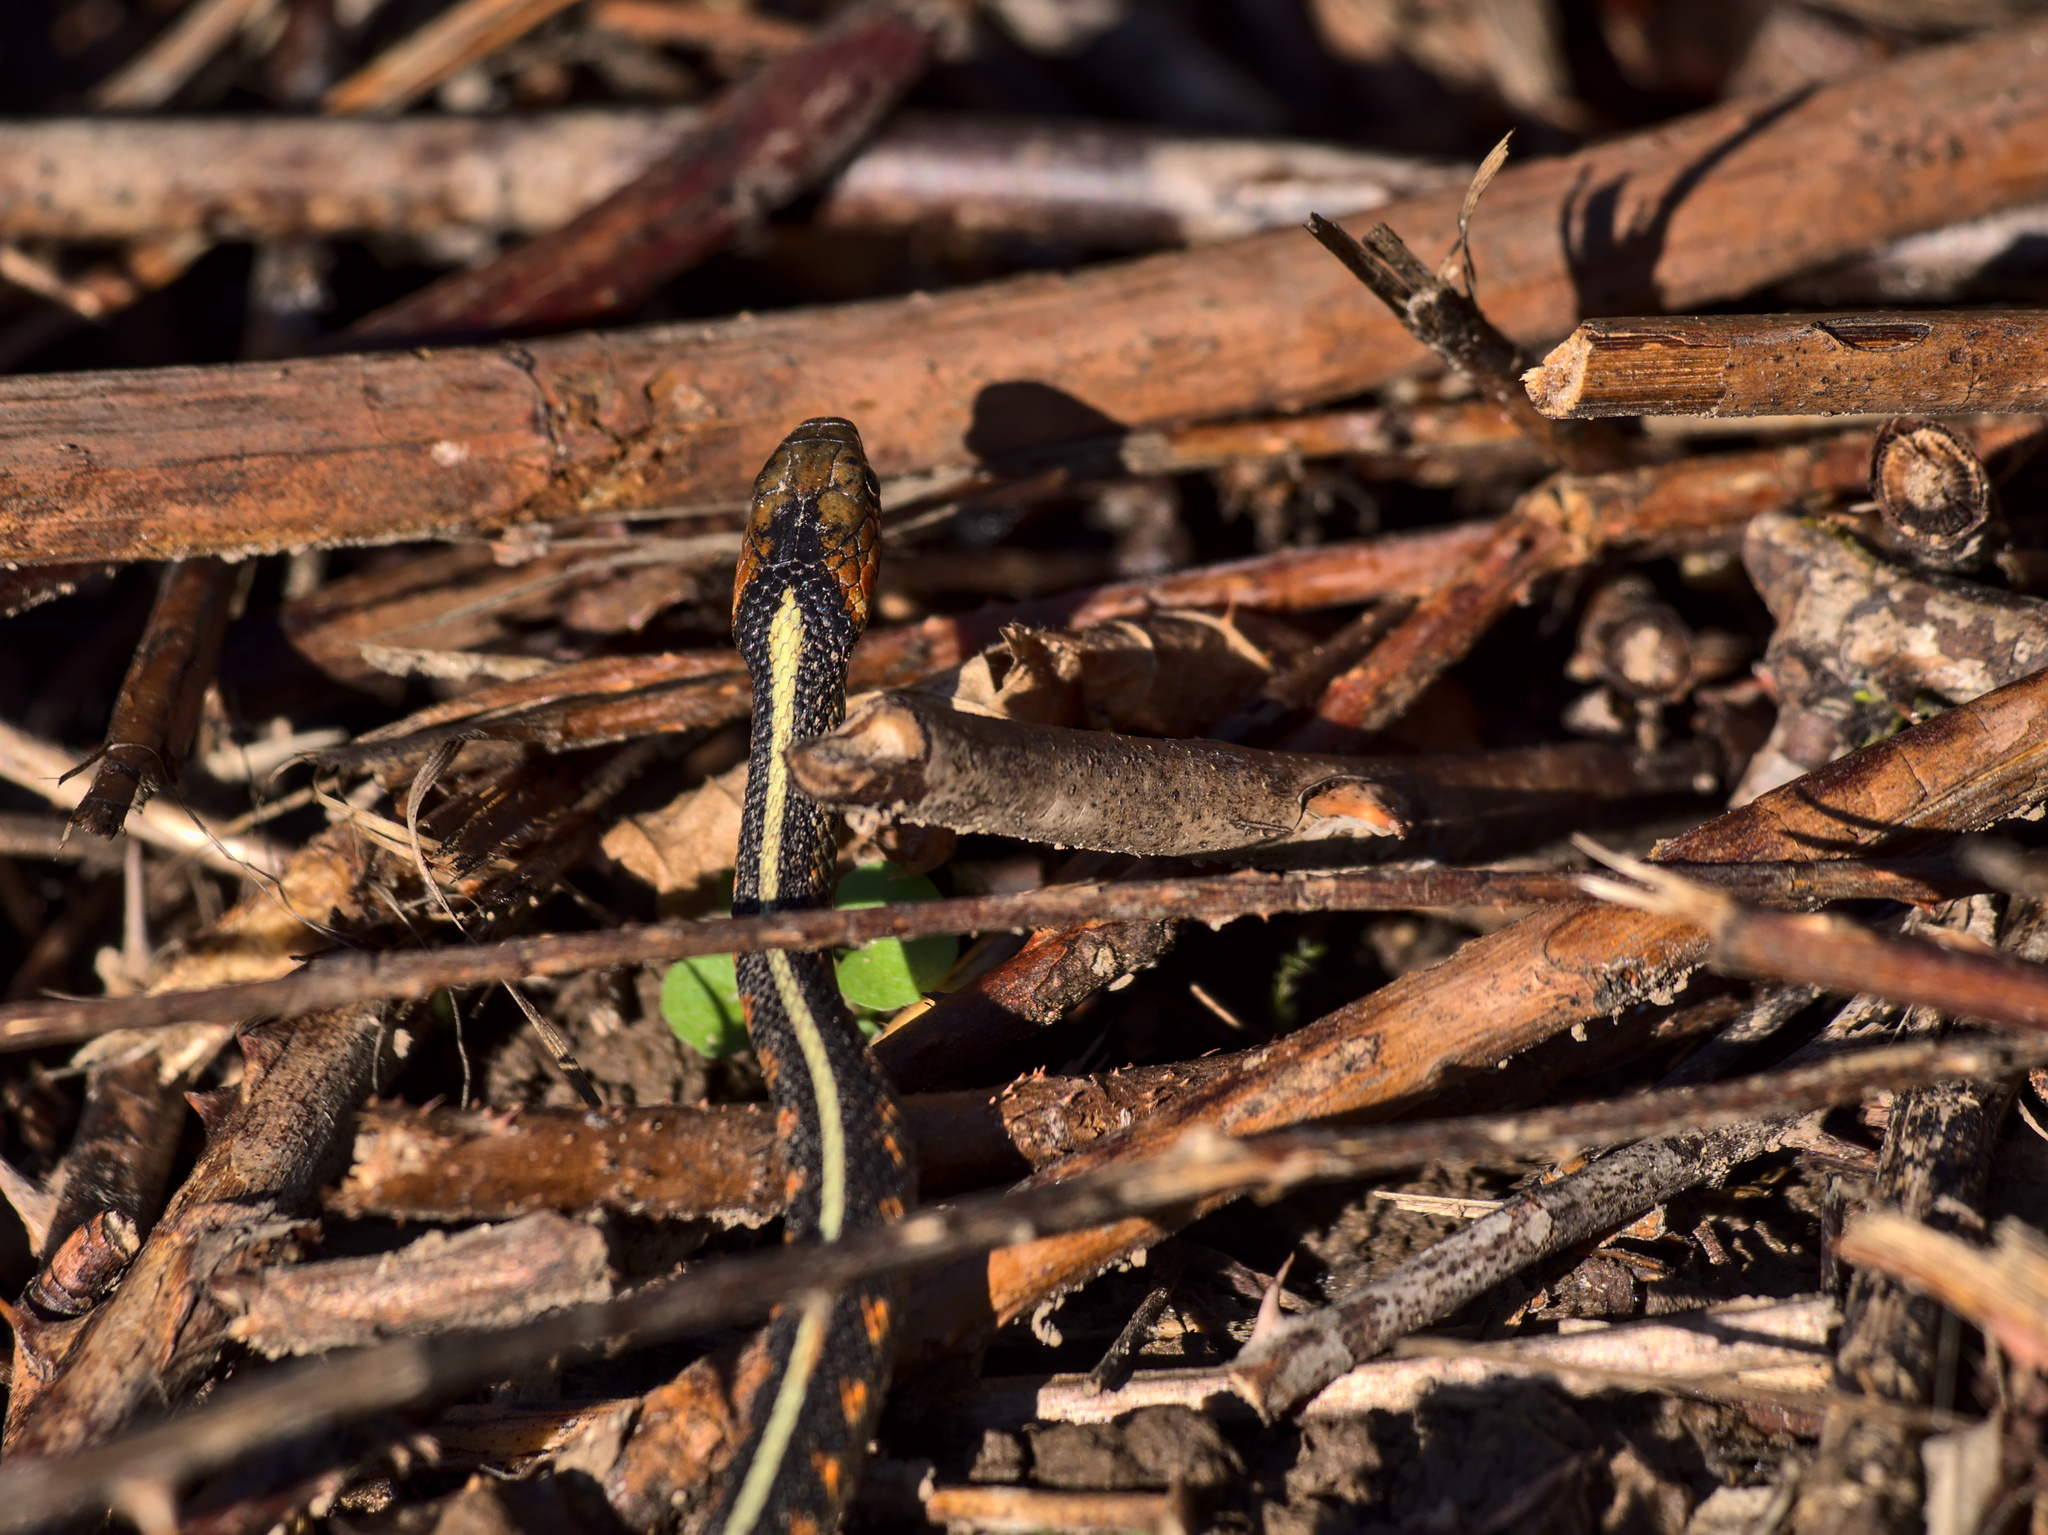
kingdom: Animalia
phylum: Chordata
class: Squamata
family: Colubridae
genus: Thamnophis
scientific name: Thamnophis sirtalis
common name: Common garter snake
